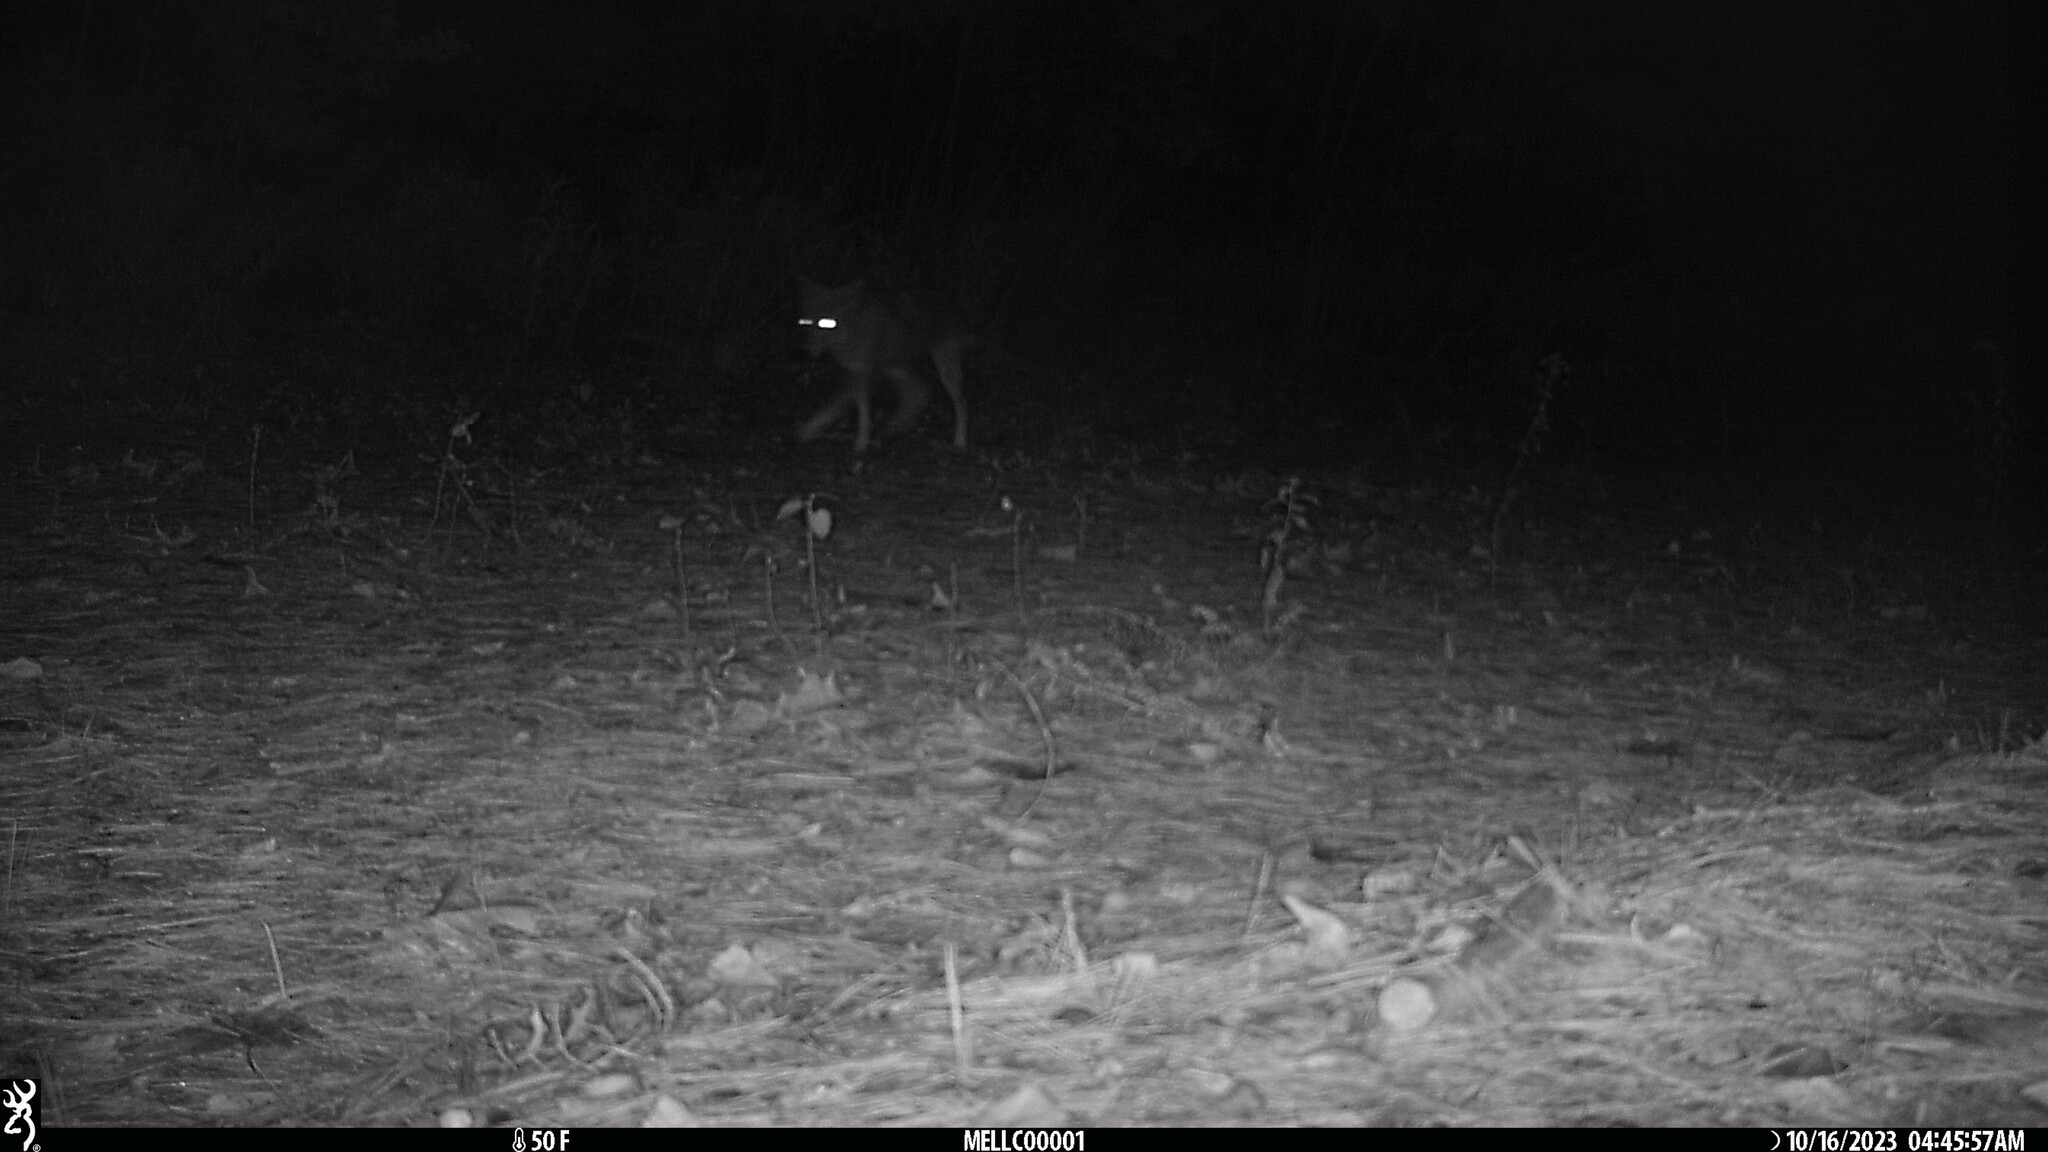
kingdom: Animalia
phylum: Chordata
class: Mammalia
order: Carnivora
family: Canidae
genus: Canis
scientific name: Canis latrans
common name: Coyote
